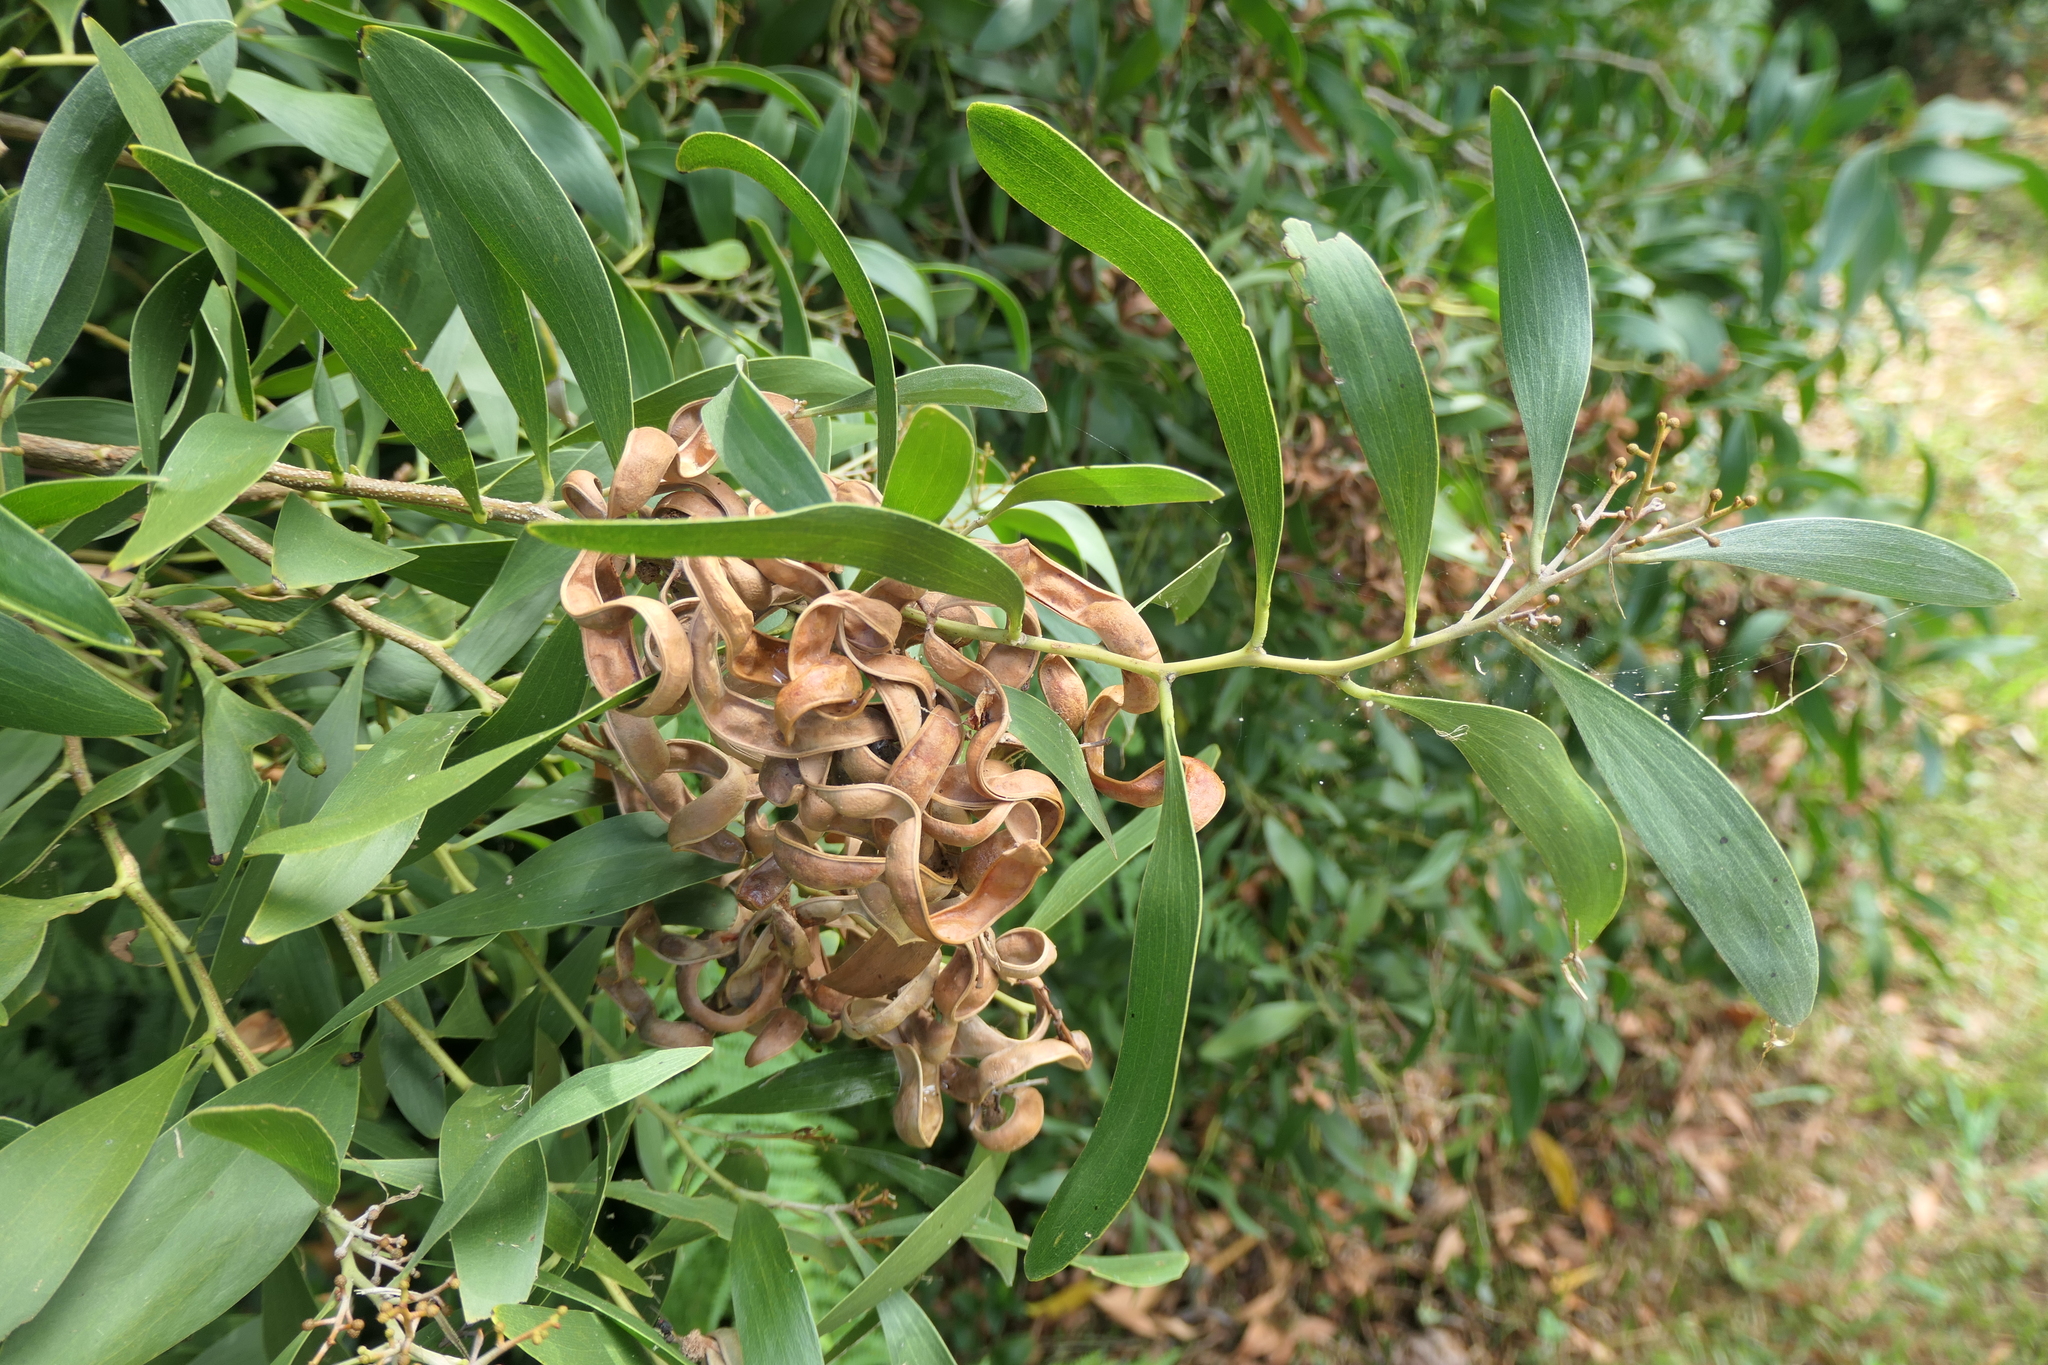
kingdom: Plantae
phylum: Tracheophyta
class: Magnoliopsida
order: Fabales
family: Fabaceae
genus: Acacia
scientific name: Acacia melanoxylon
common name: Blackwood
